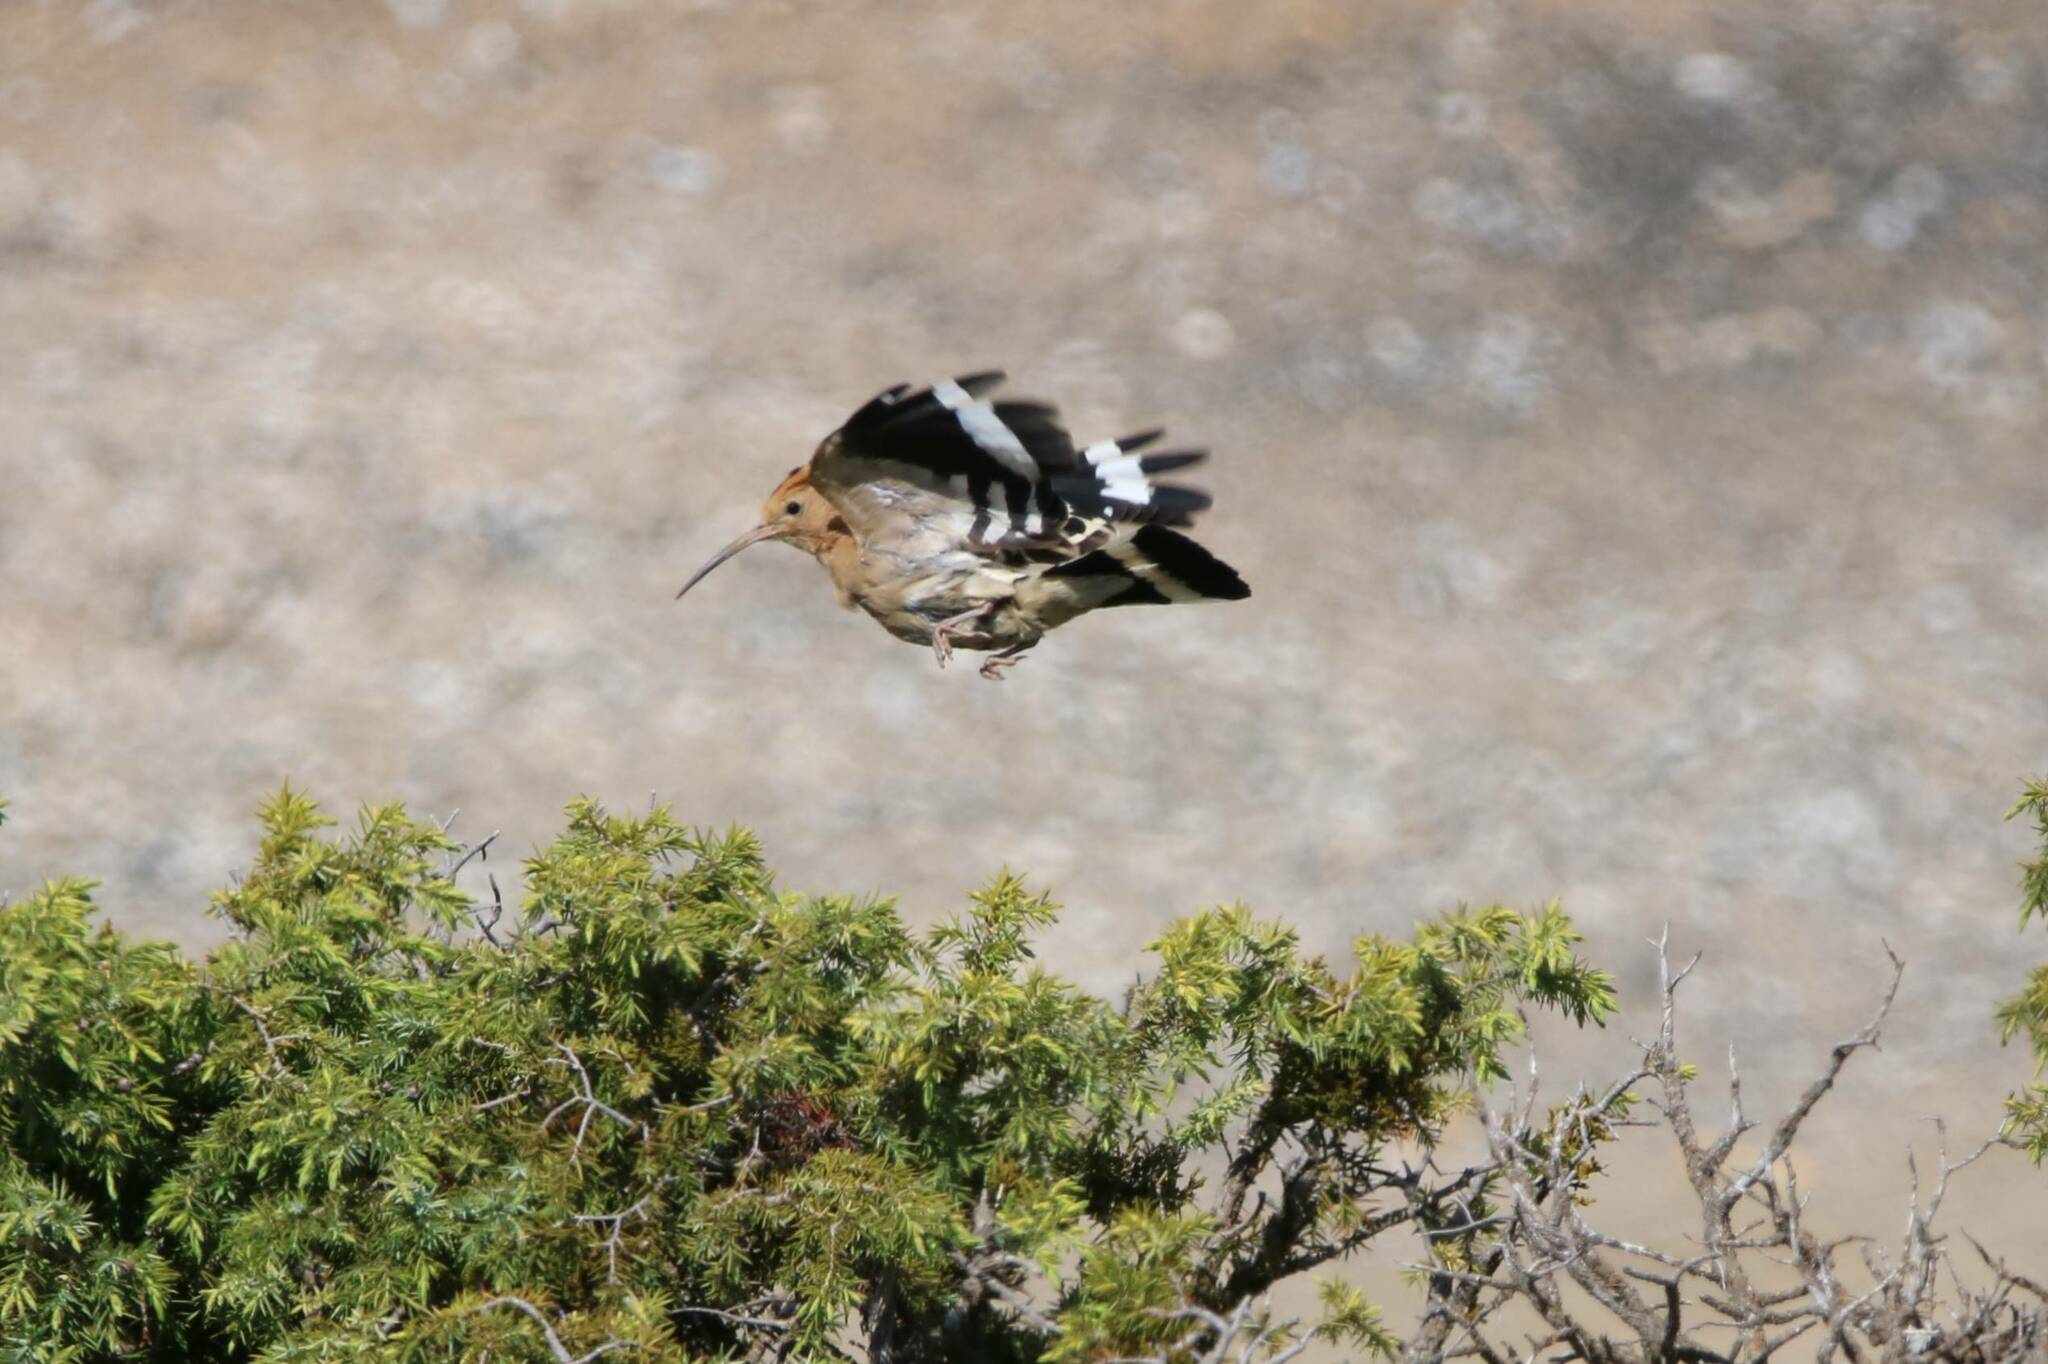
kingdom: Animalia
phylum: Chordata
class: Aves
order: Bucerotiformes
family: Upupidae
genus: Upupa
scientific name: Upupa epops
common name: Eurasian hoopoe
